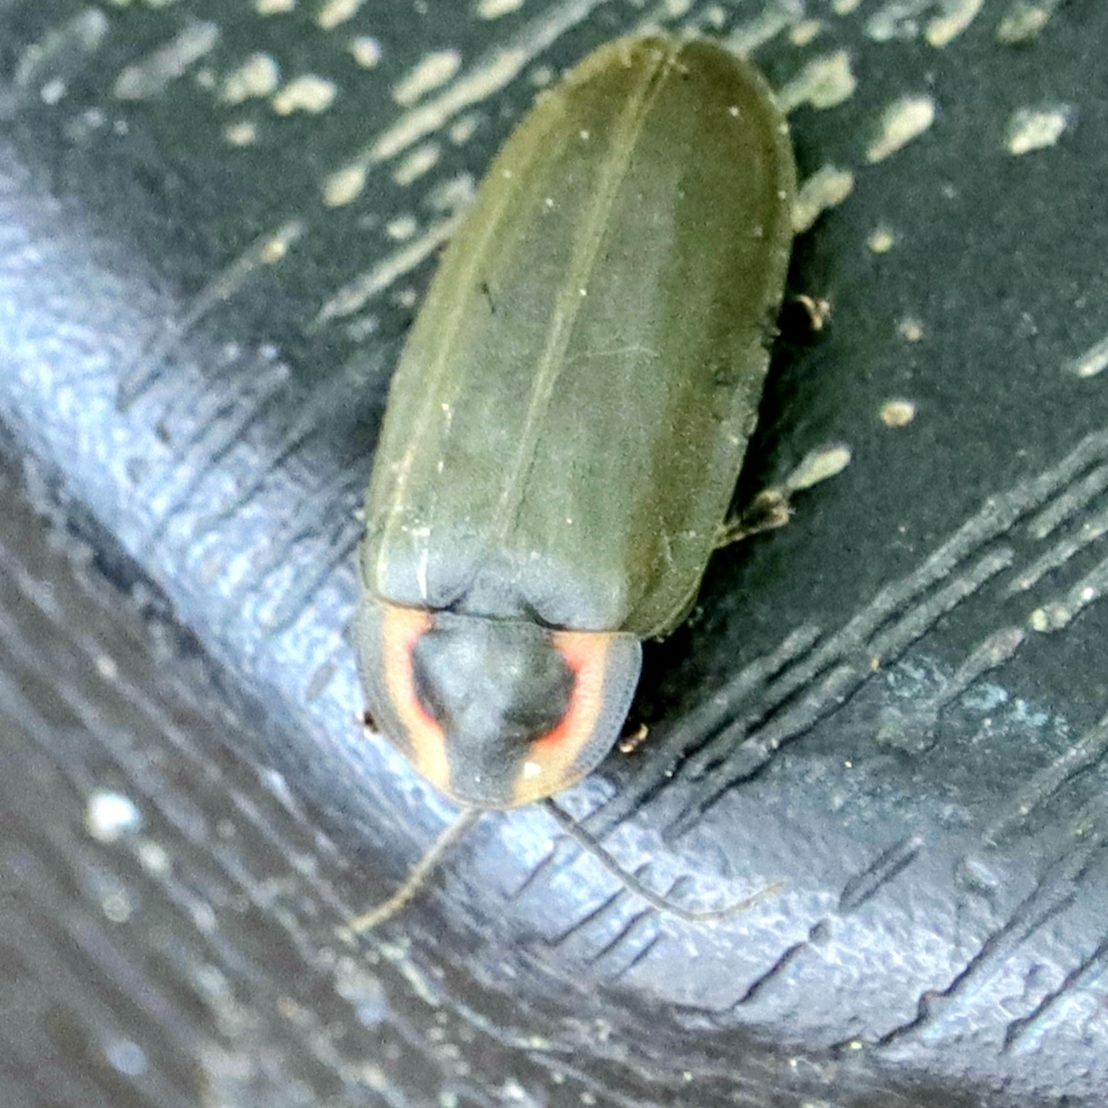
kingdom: Animalia
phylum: Arthropoda
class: Insecta
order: Coleoptera
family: Lampyridae
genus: Photinus
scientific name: Photinus corrusca
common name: Winter firefly
